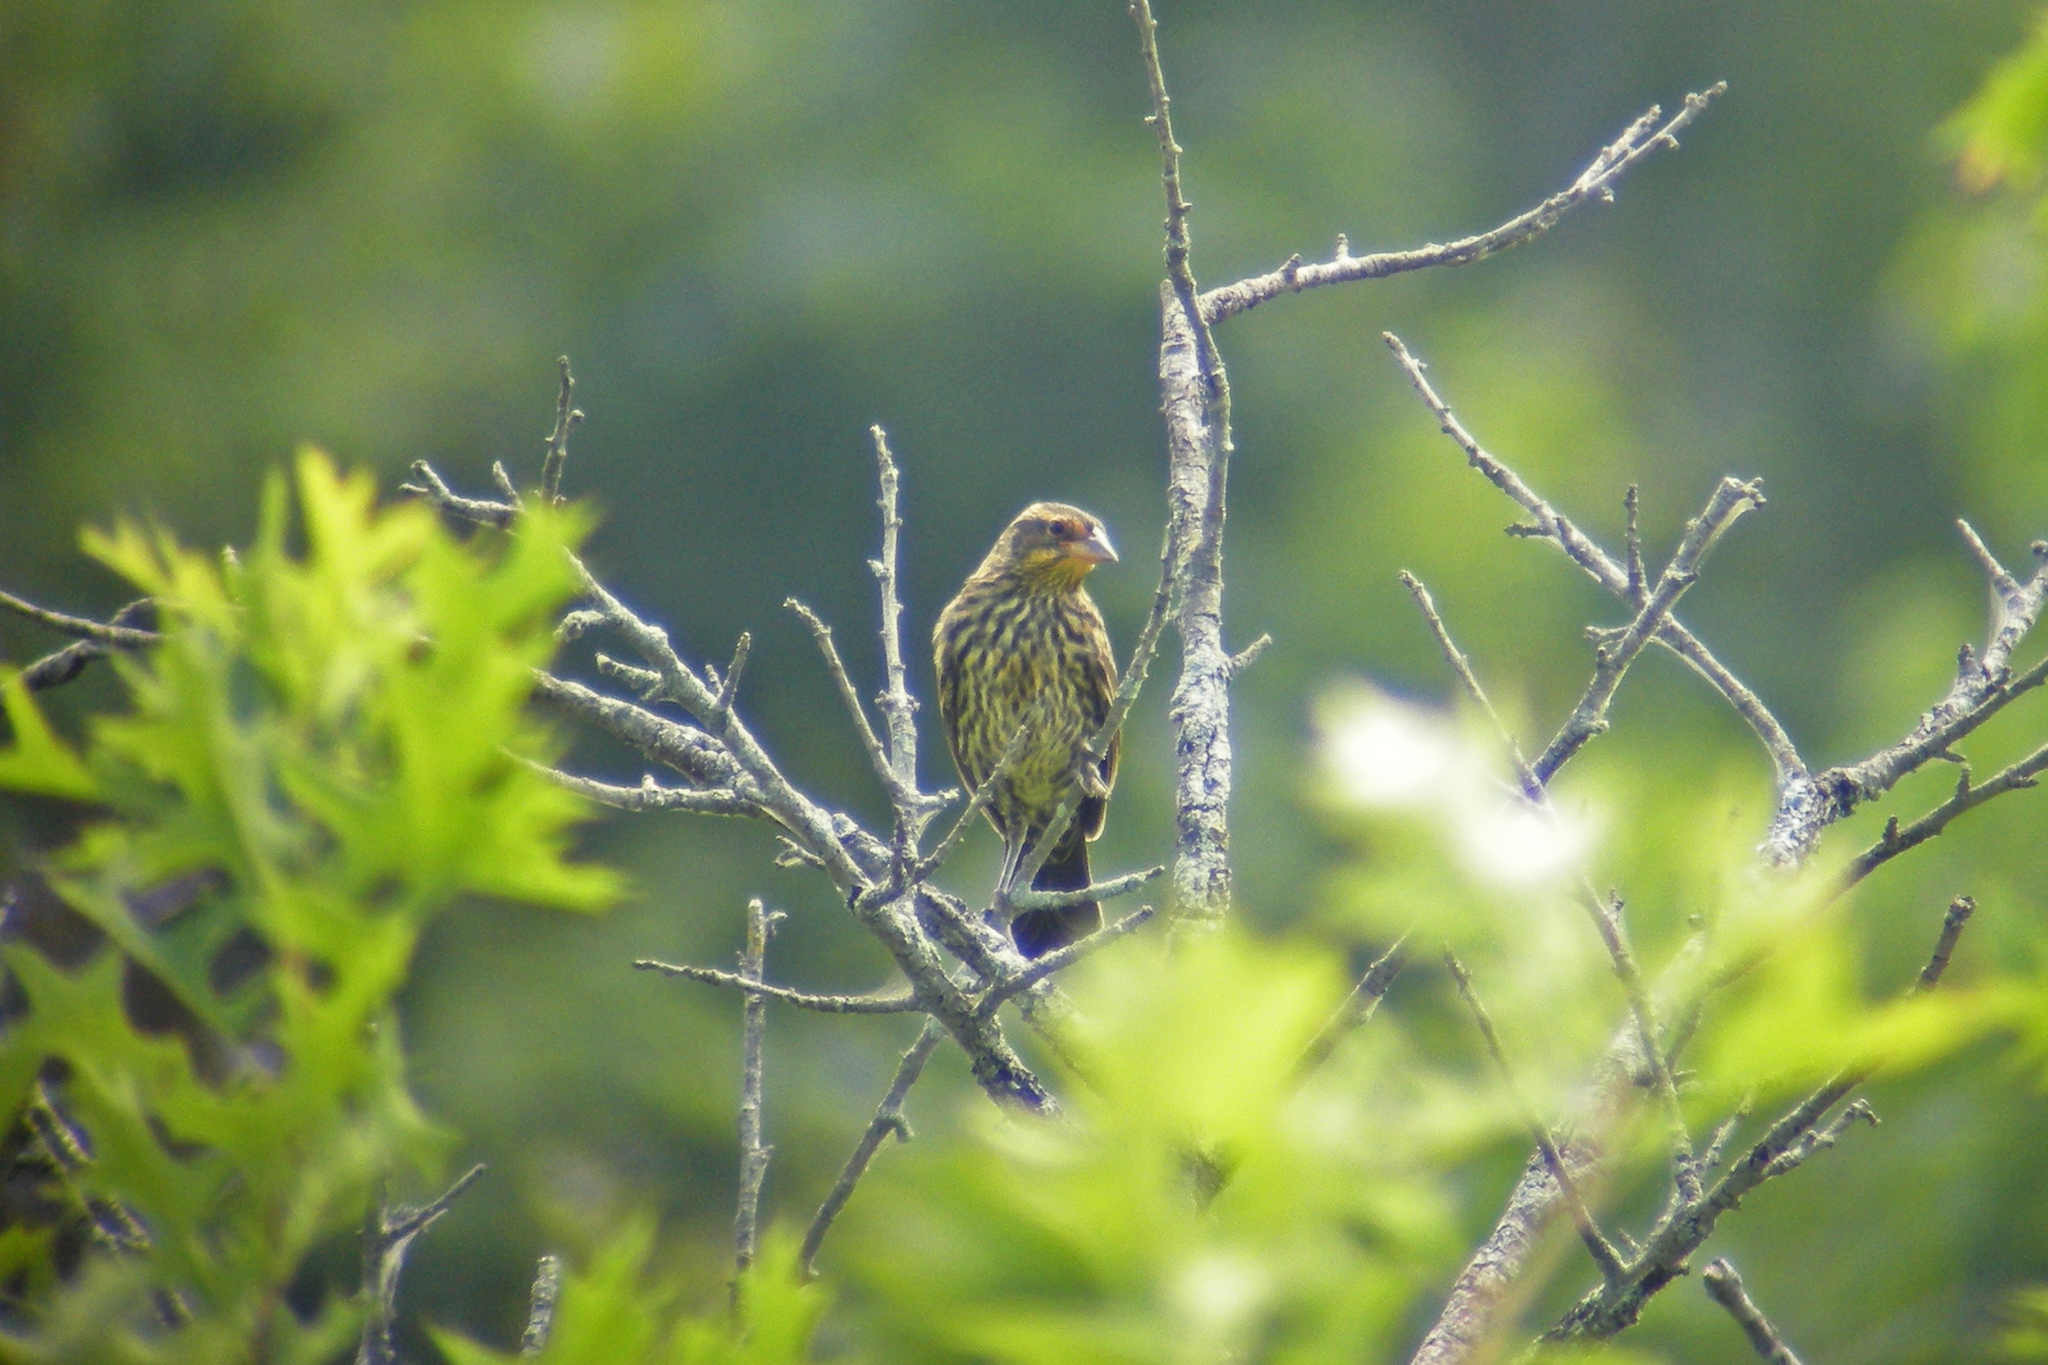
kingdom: Animalia
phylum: Chordata
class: Aves
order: Passeriformes
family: Icteridae
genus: Agelaius
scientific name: Agelaius phoeniceus
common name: Red-winged blackbird
